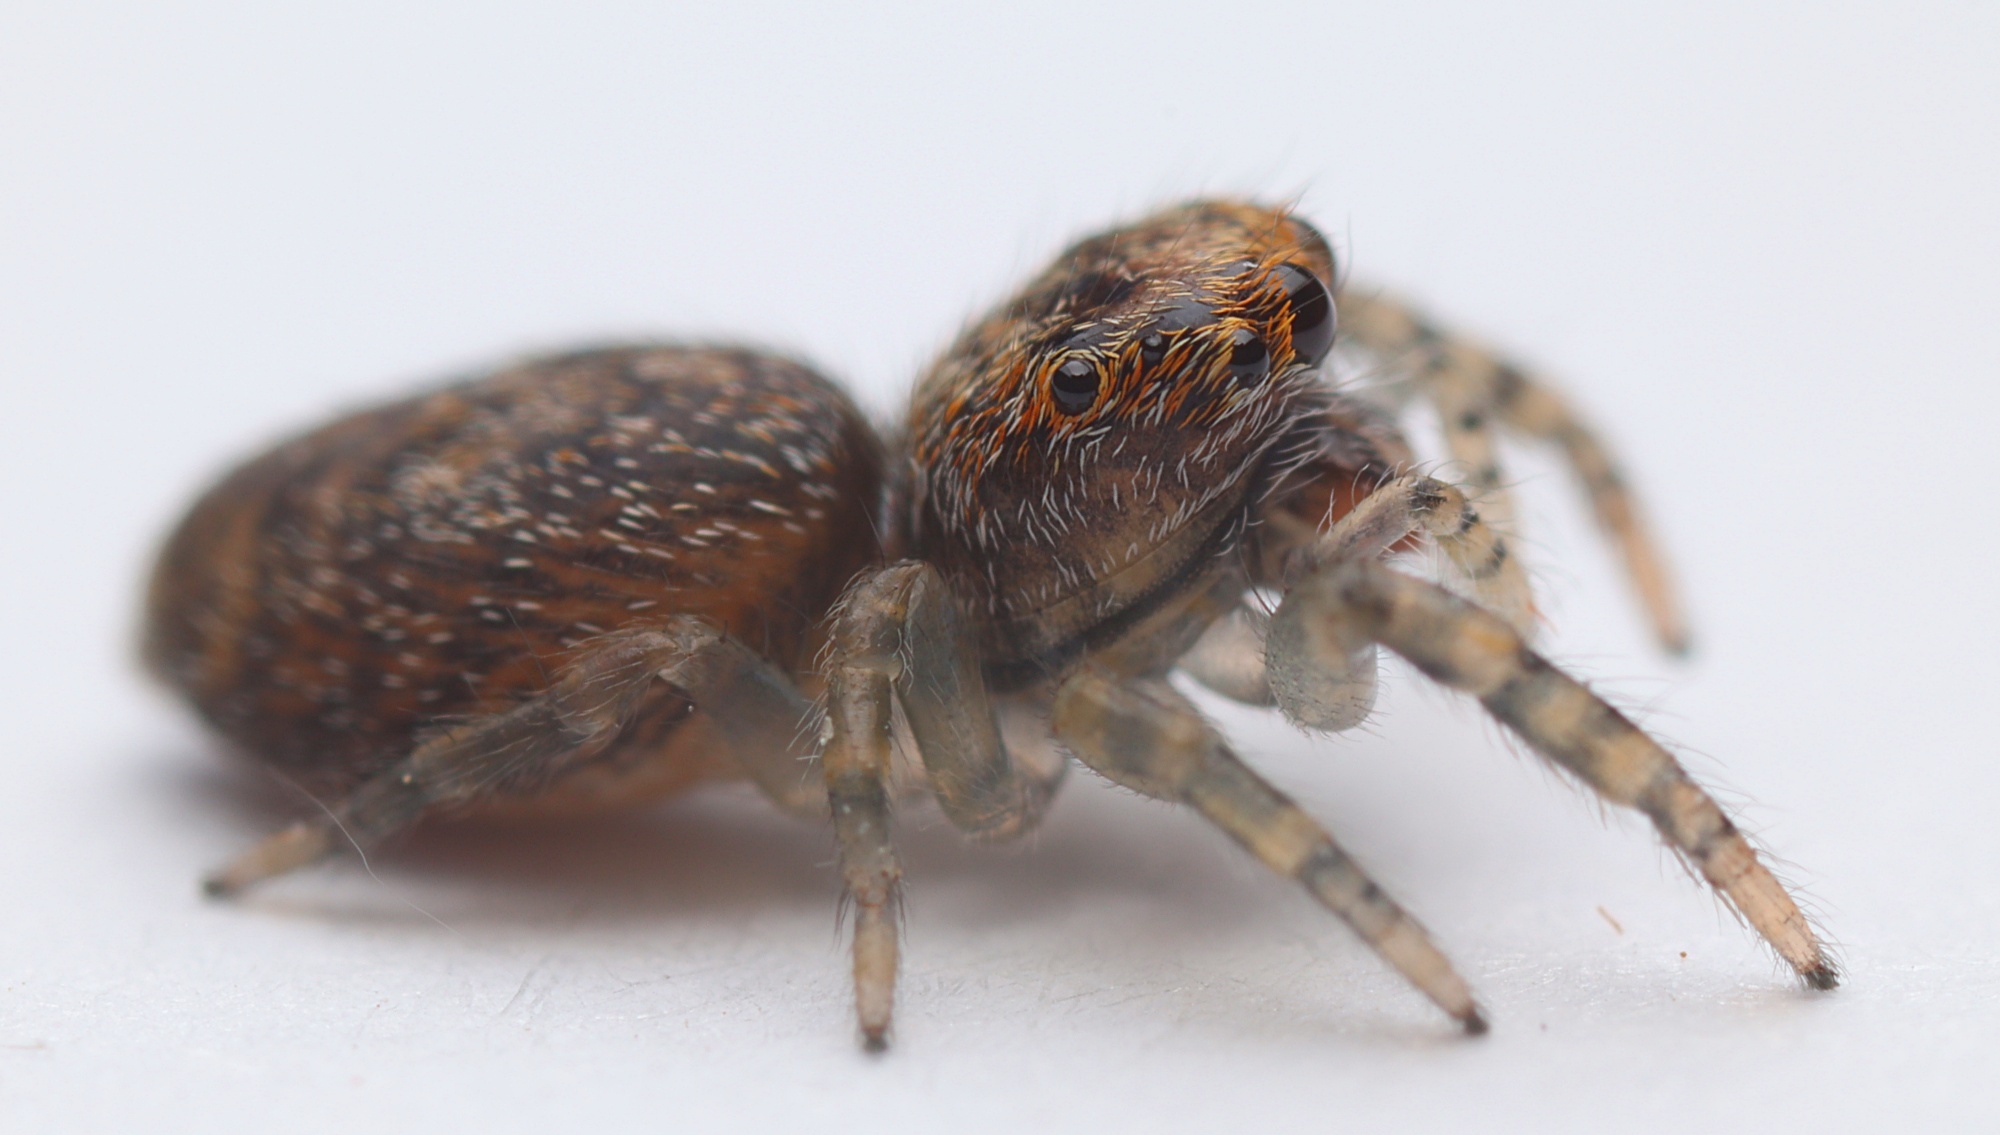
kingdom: Animalia
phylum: Arthropoda
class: Arachnida
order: Araneae
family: Salticidae
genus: Opisthoncus
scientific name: Opisthoncus polyphemus
